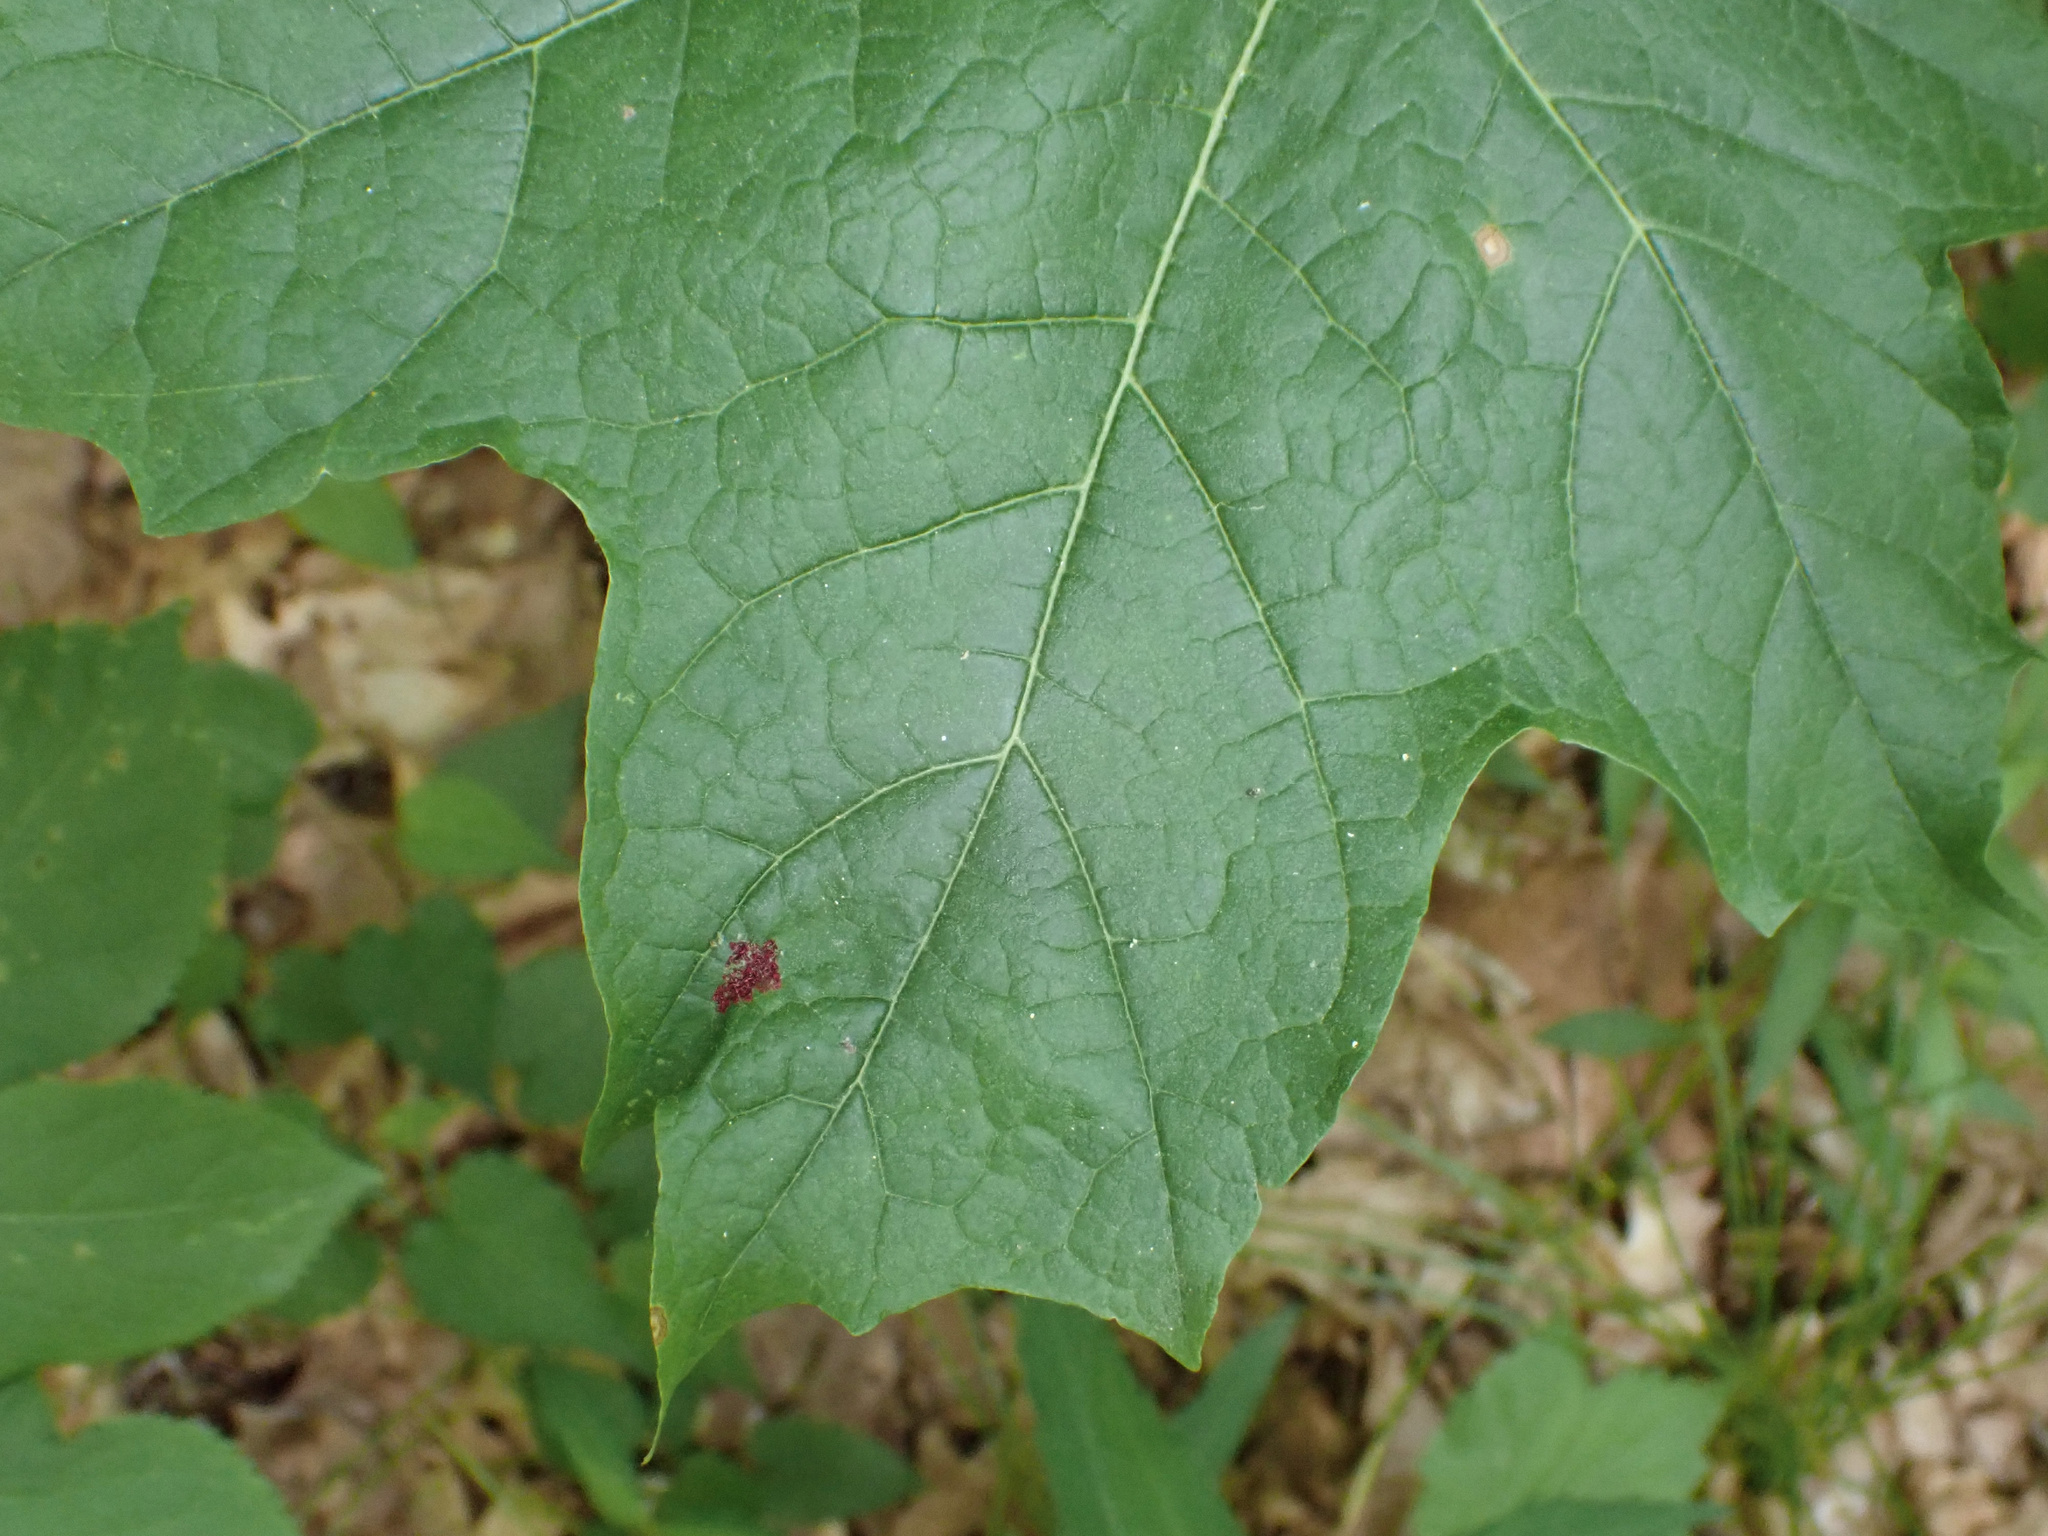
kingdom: Animalia
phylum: Arthropoda
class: Arachnida
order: Trombidiformes
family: Eriophyidae
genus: Aceria
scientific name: Aceria
